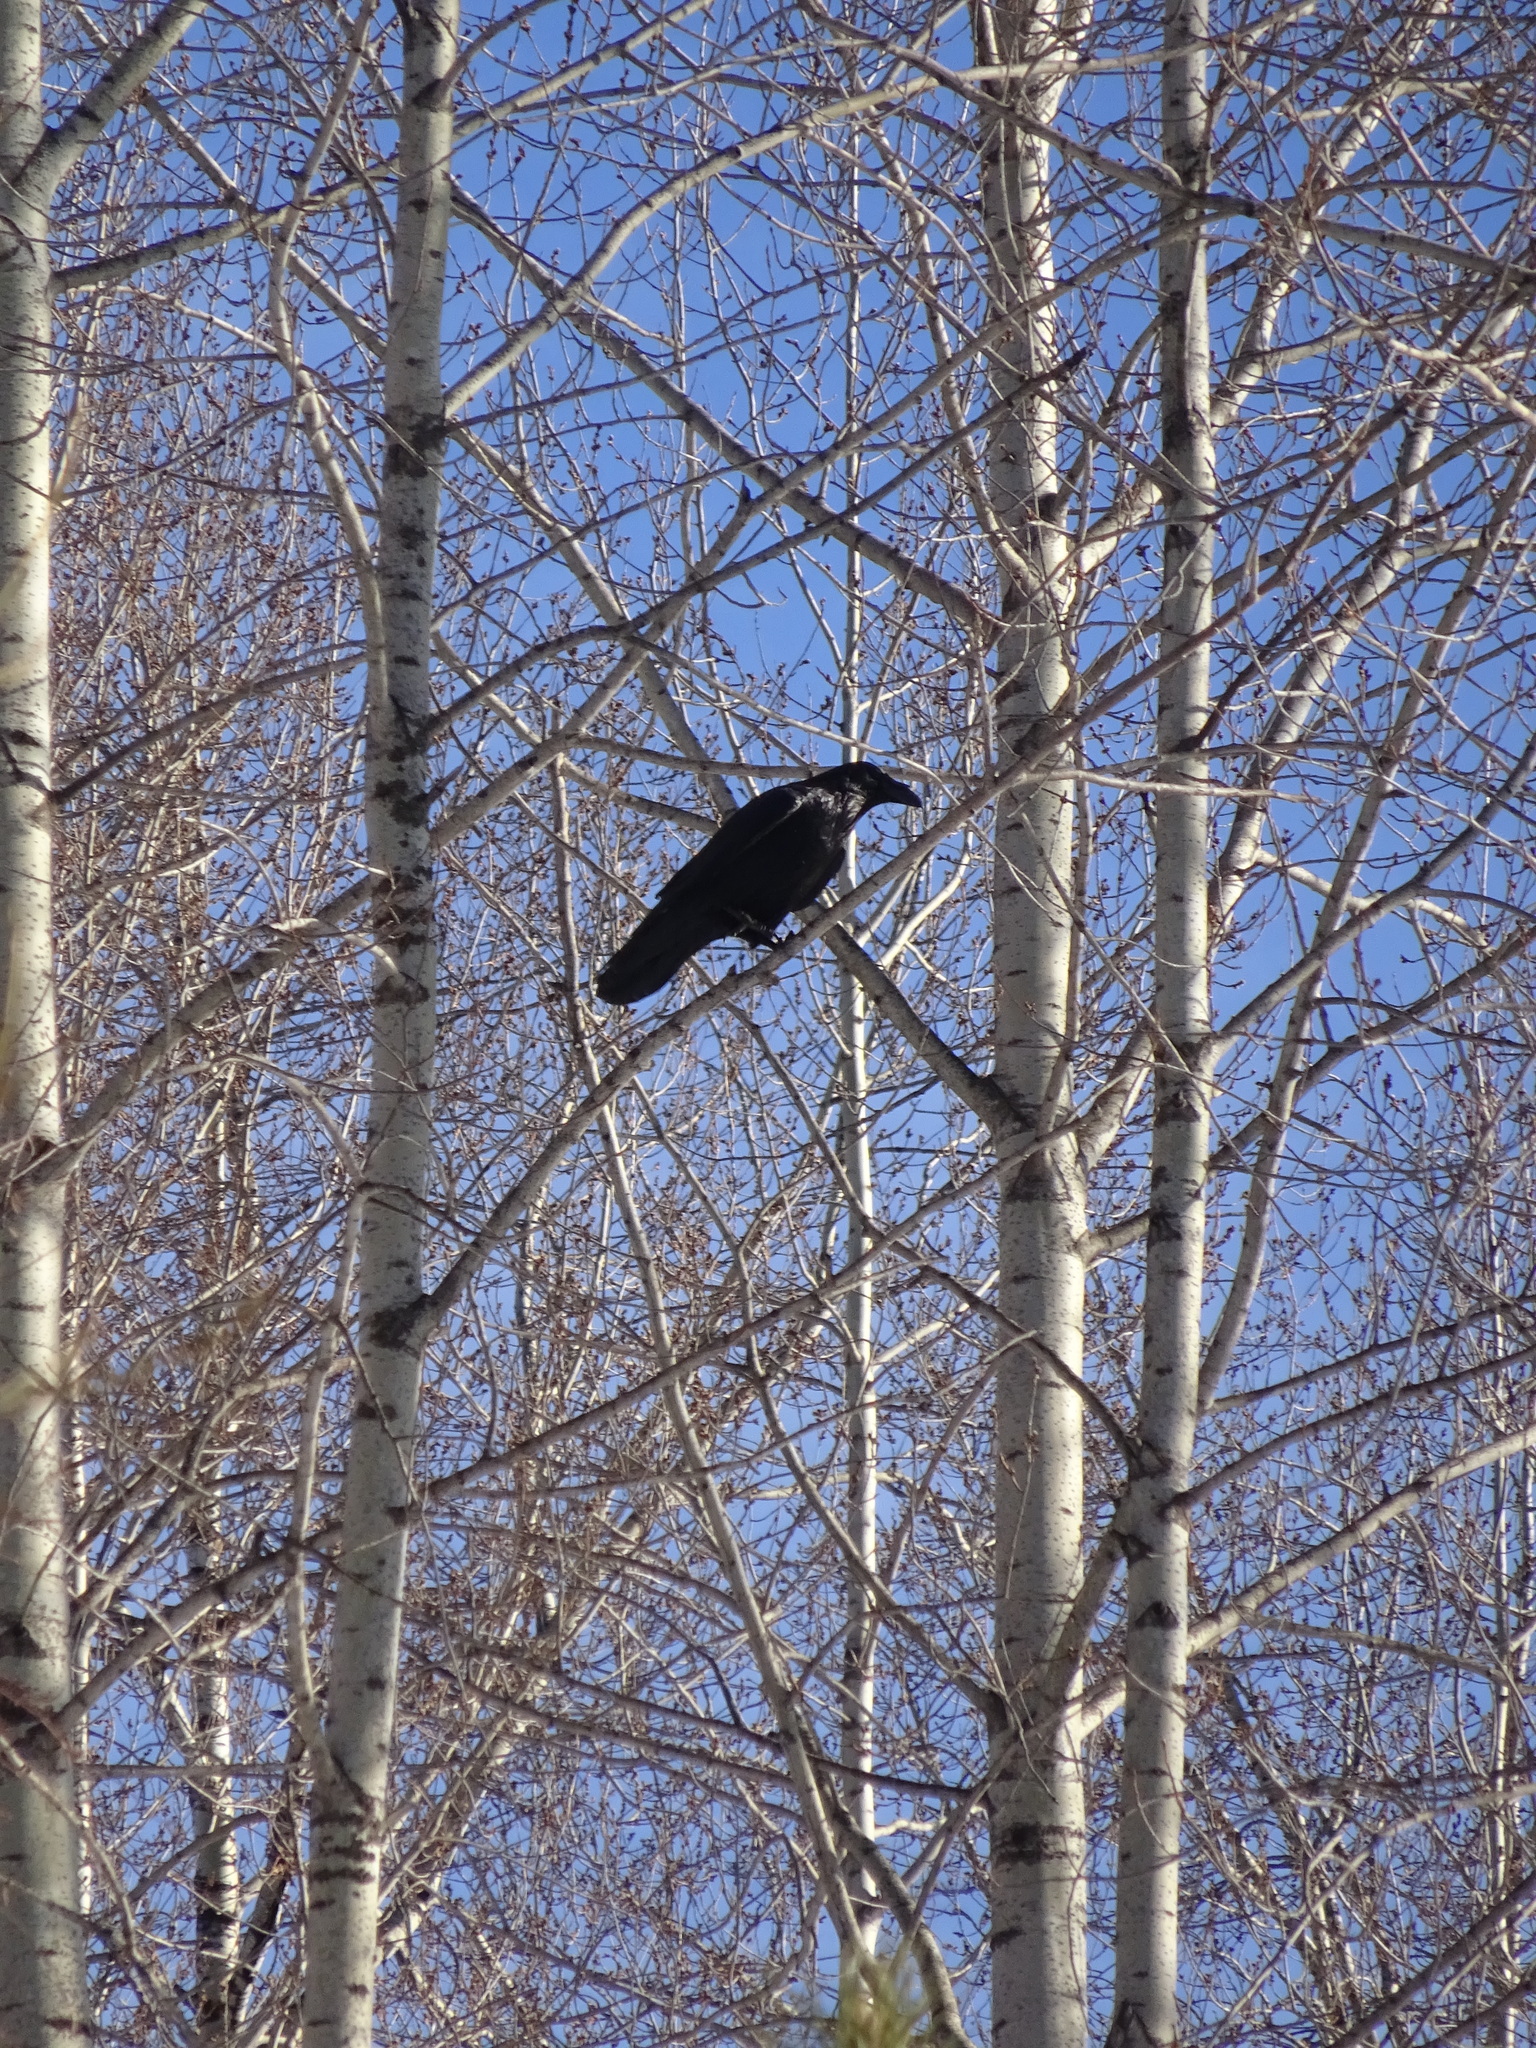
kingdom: Animalia
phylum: Chordata
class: Aves
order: Passeriformes
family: Corvidae
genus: Corvus
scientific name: Corvus corax
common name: Common raven
